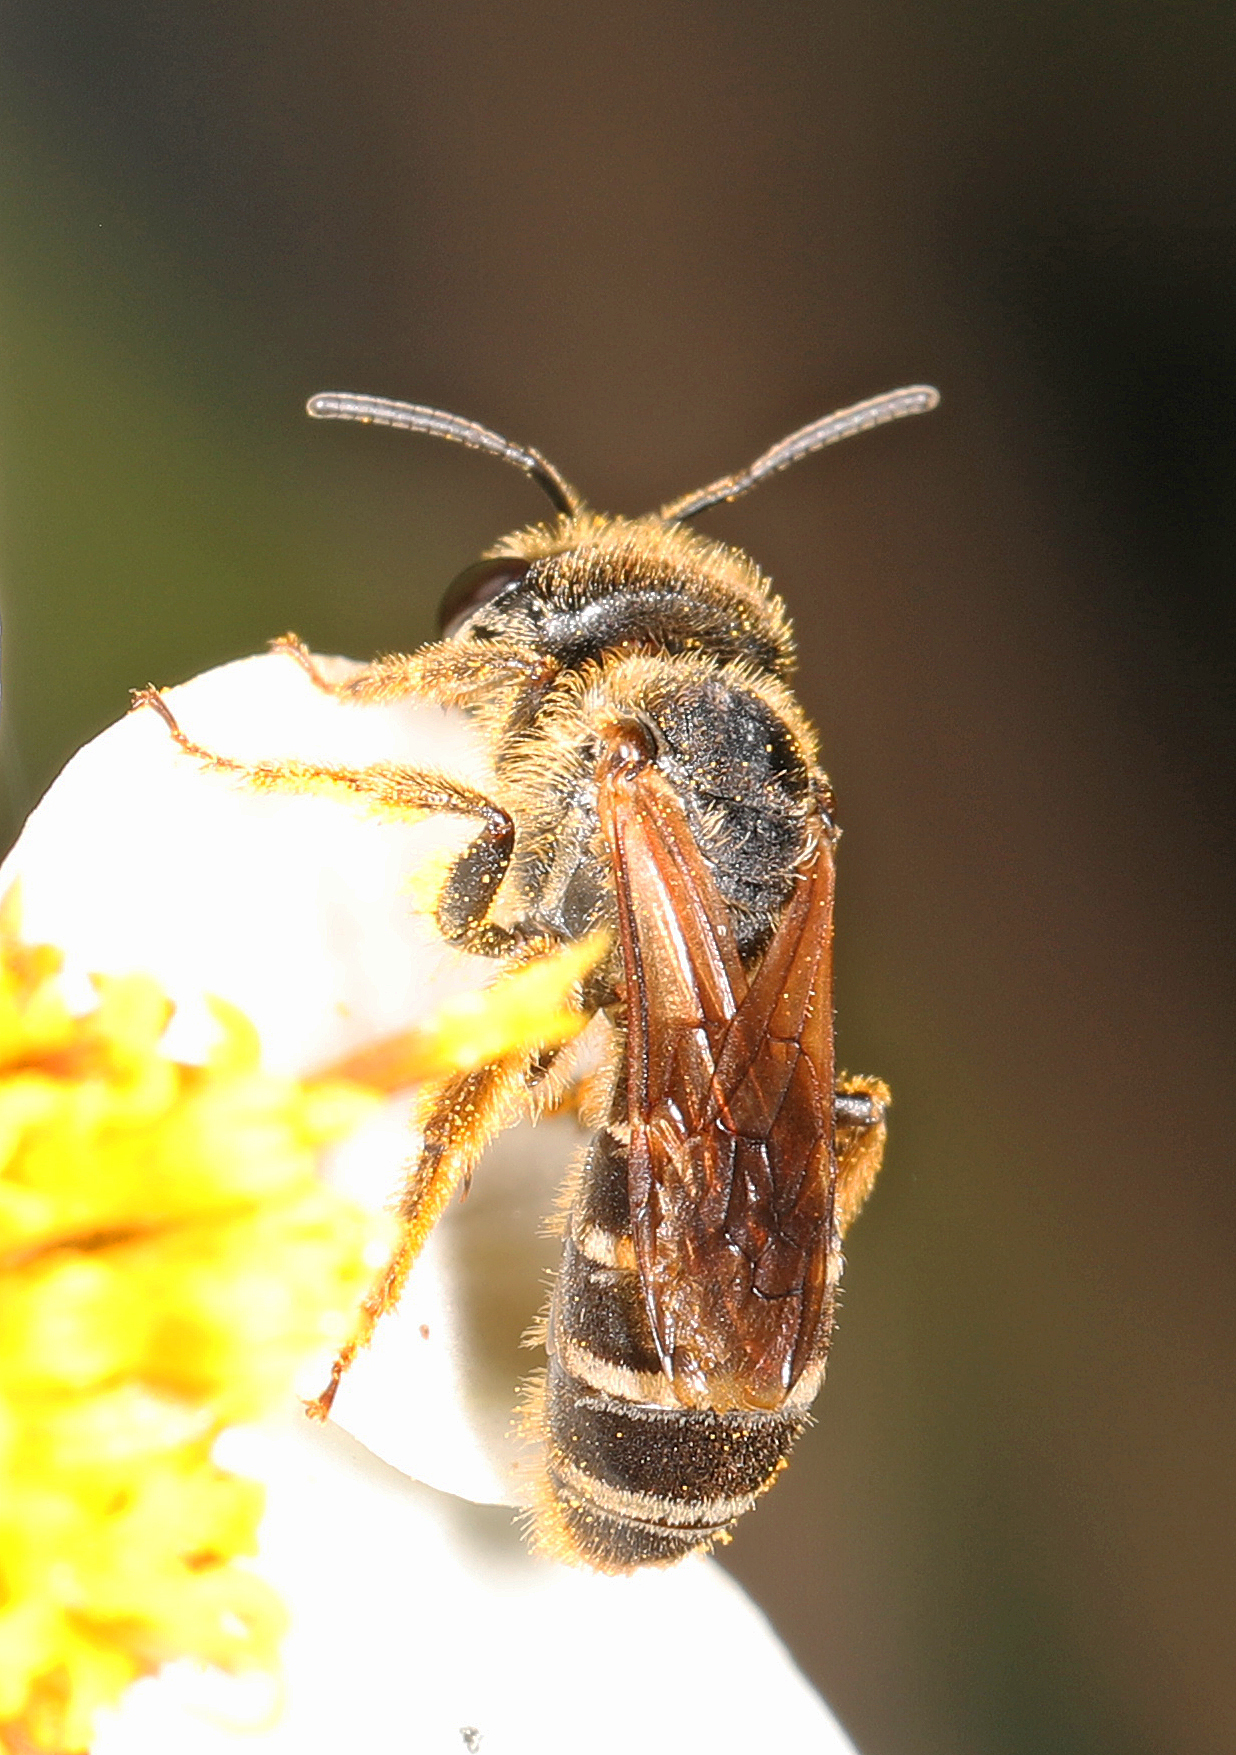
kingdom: Animalia
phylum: Arthropoda
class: Insecta
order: Hymenoptera
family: Halictidae
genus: Halictus
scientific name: Halictus poeyi
